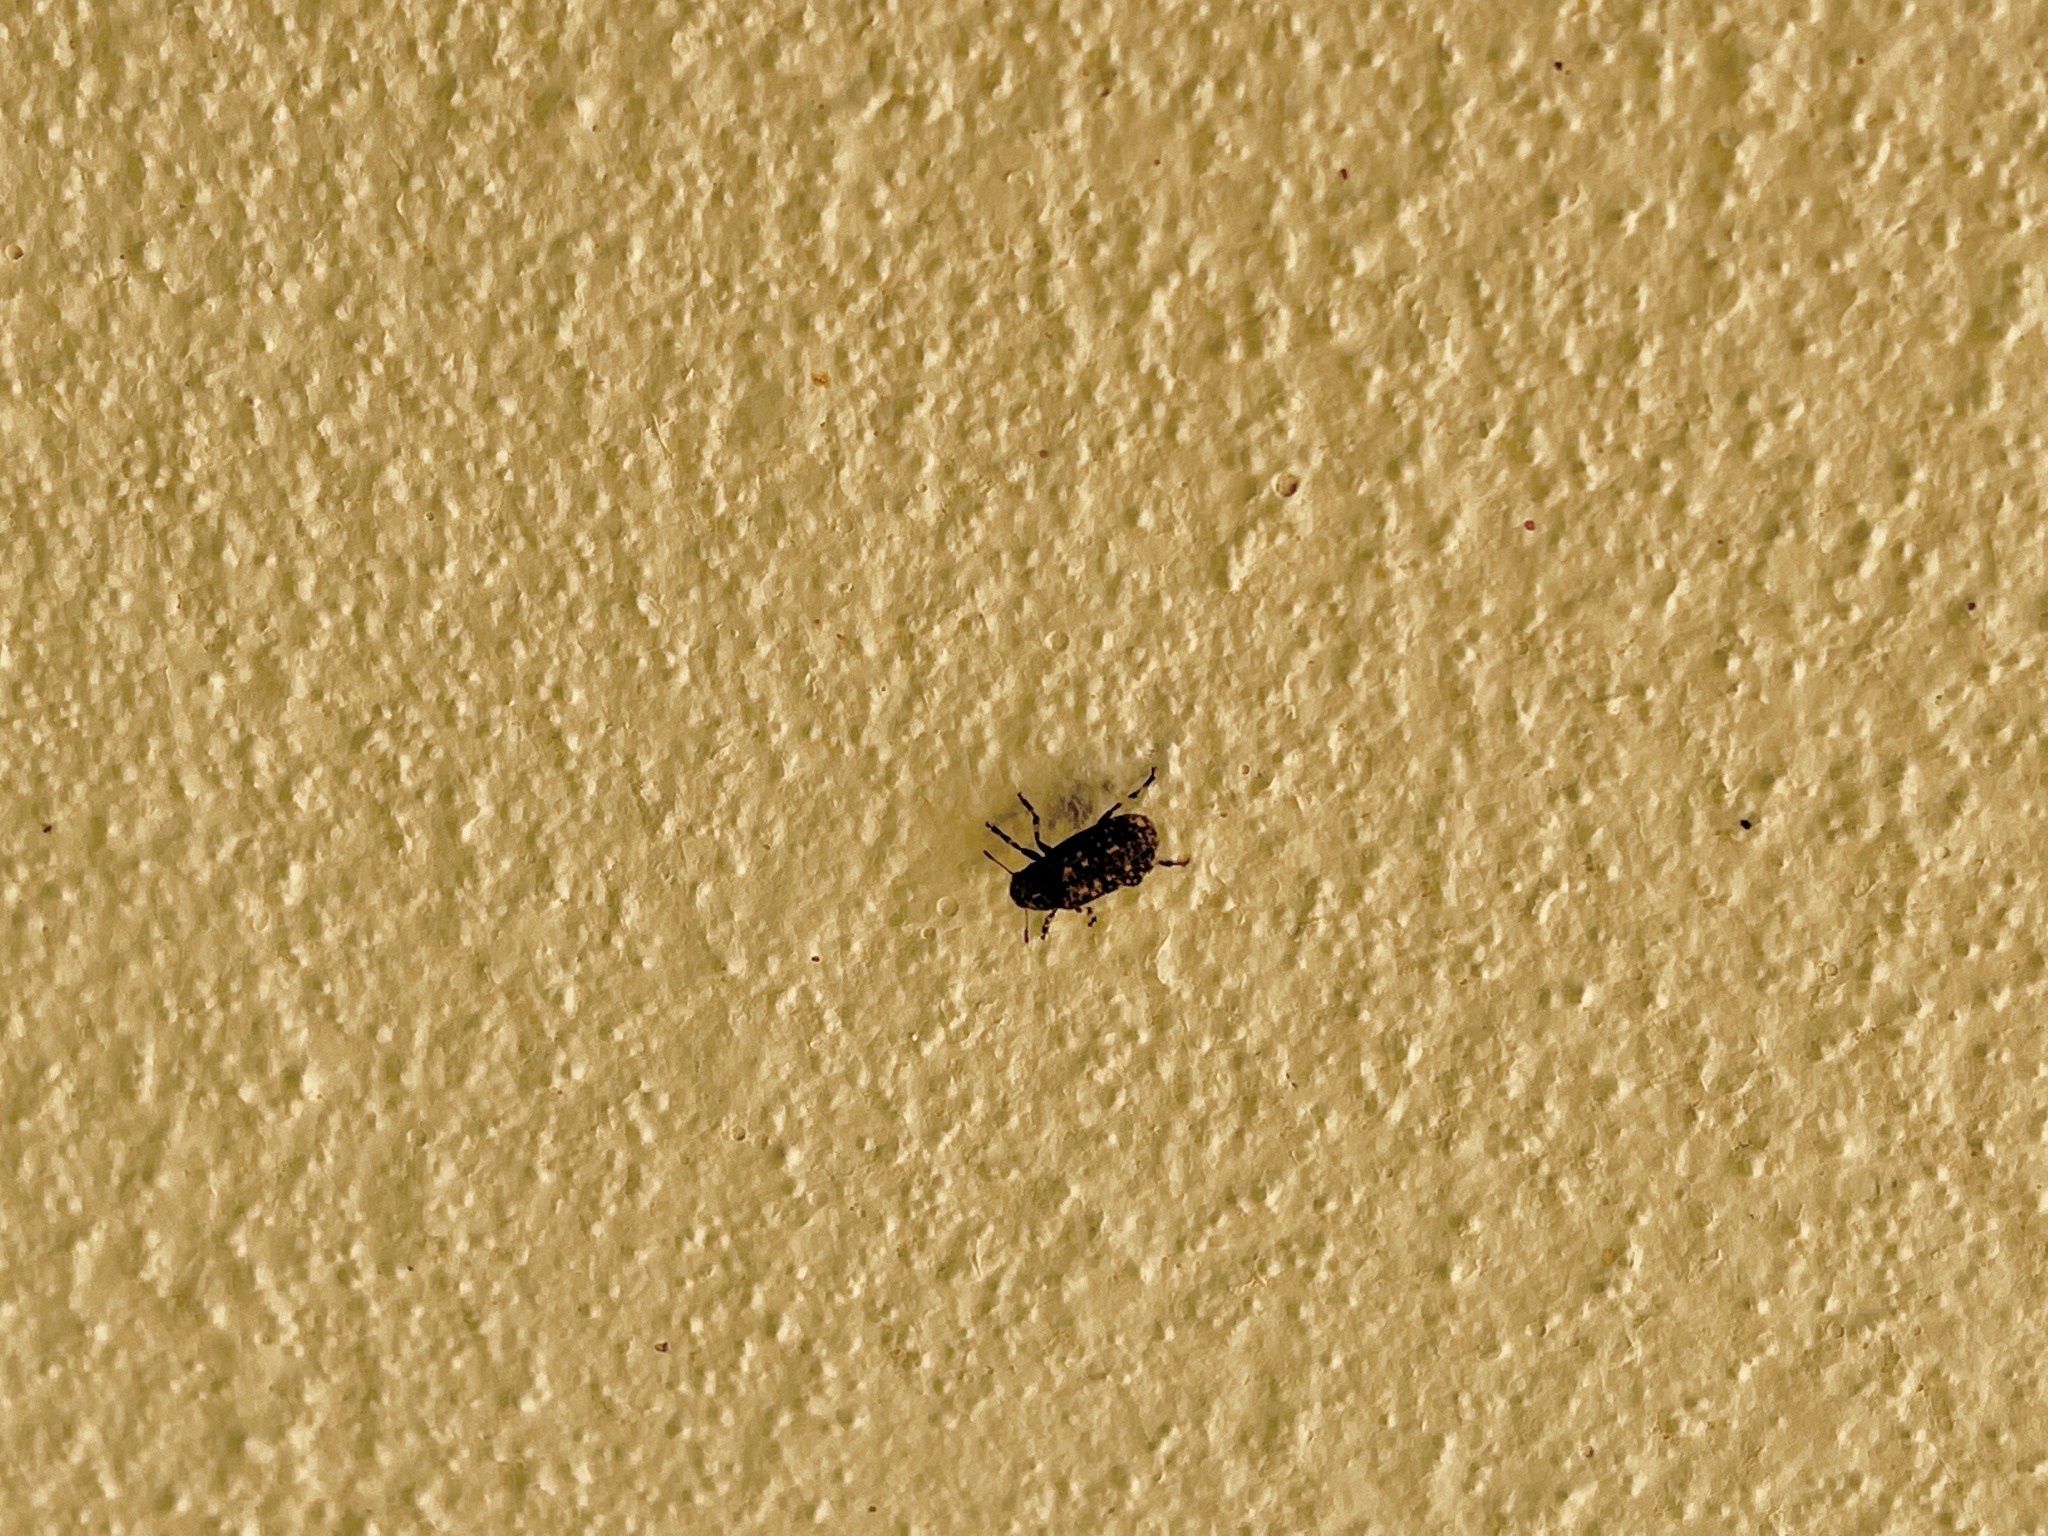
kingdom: Animalia
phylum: Arthropoda
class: Insecta
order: Coleoptera
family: Anthribidae
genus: Euparius
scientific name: Euparius subtessellatus
